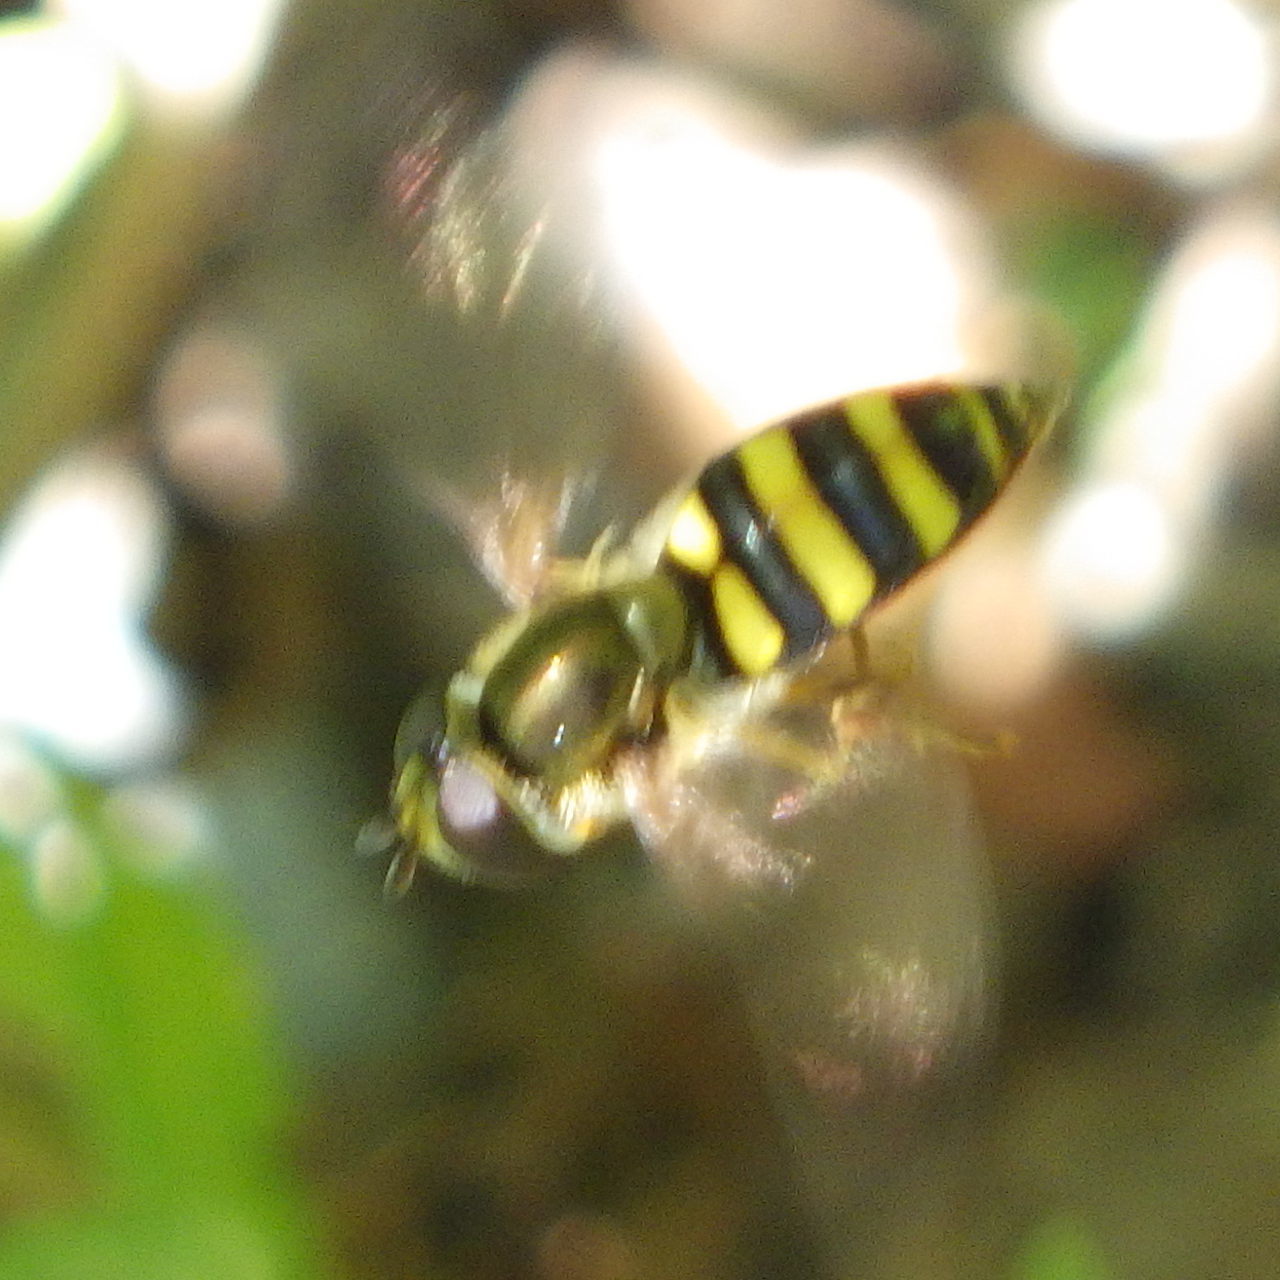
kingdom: Animalia
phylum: Arthropoda
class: Insecta
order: Diptera
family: Syrphidae
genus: Eupeodes
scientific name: Eupeodes
